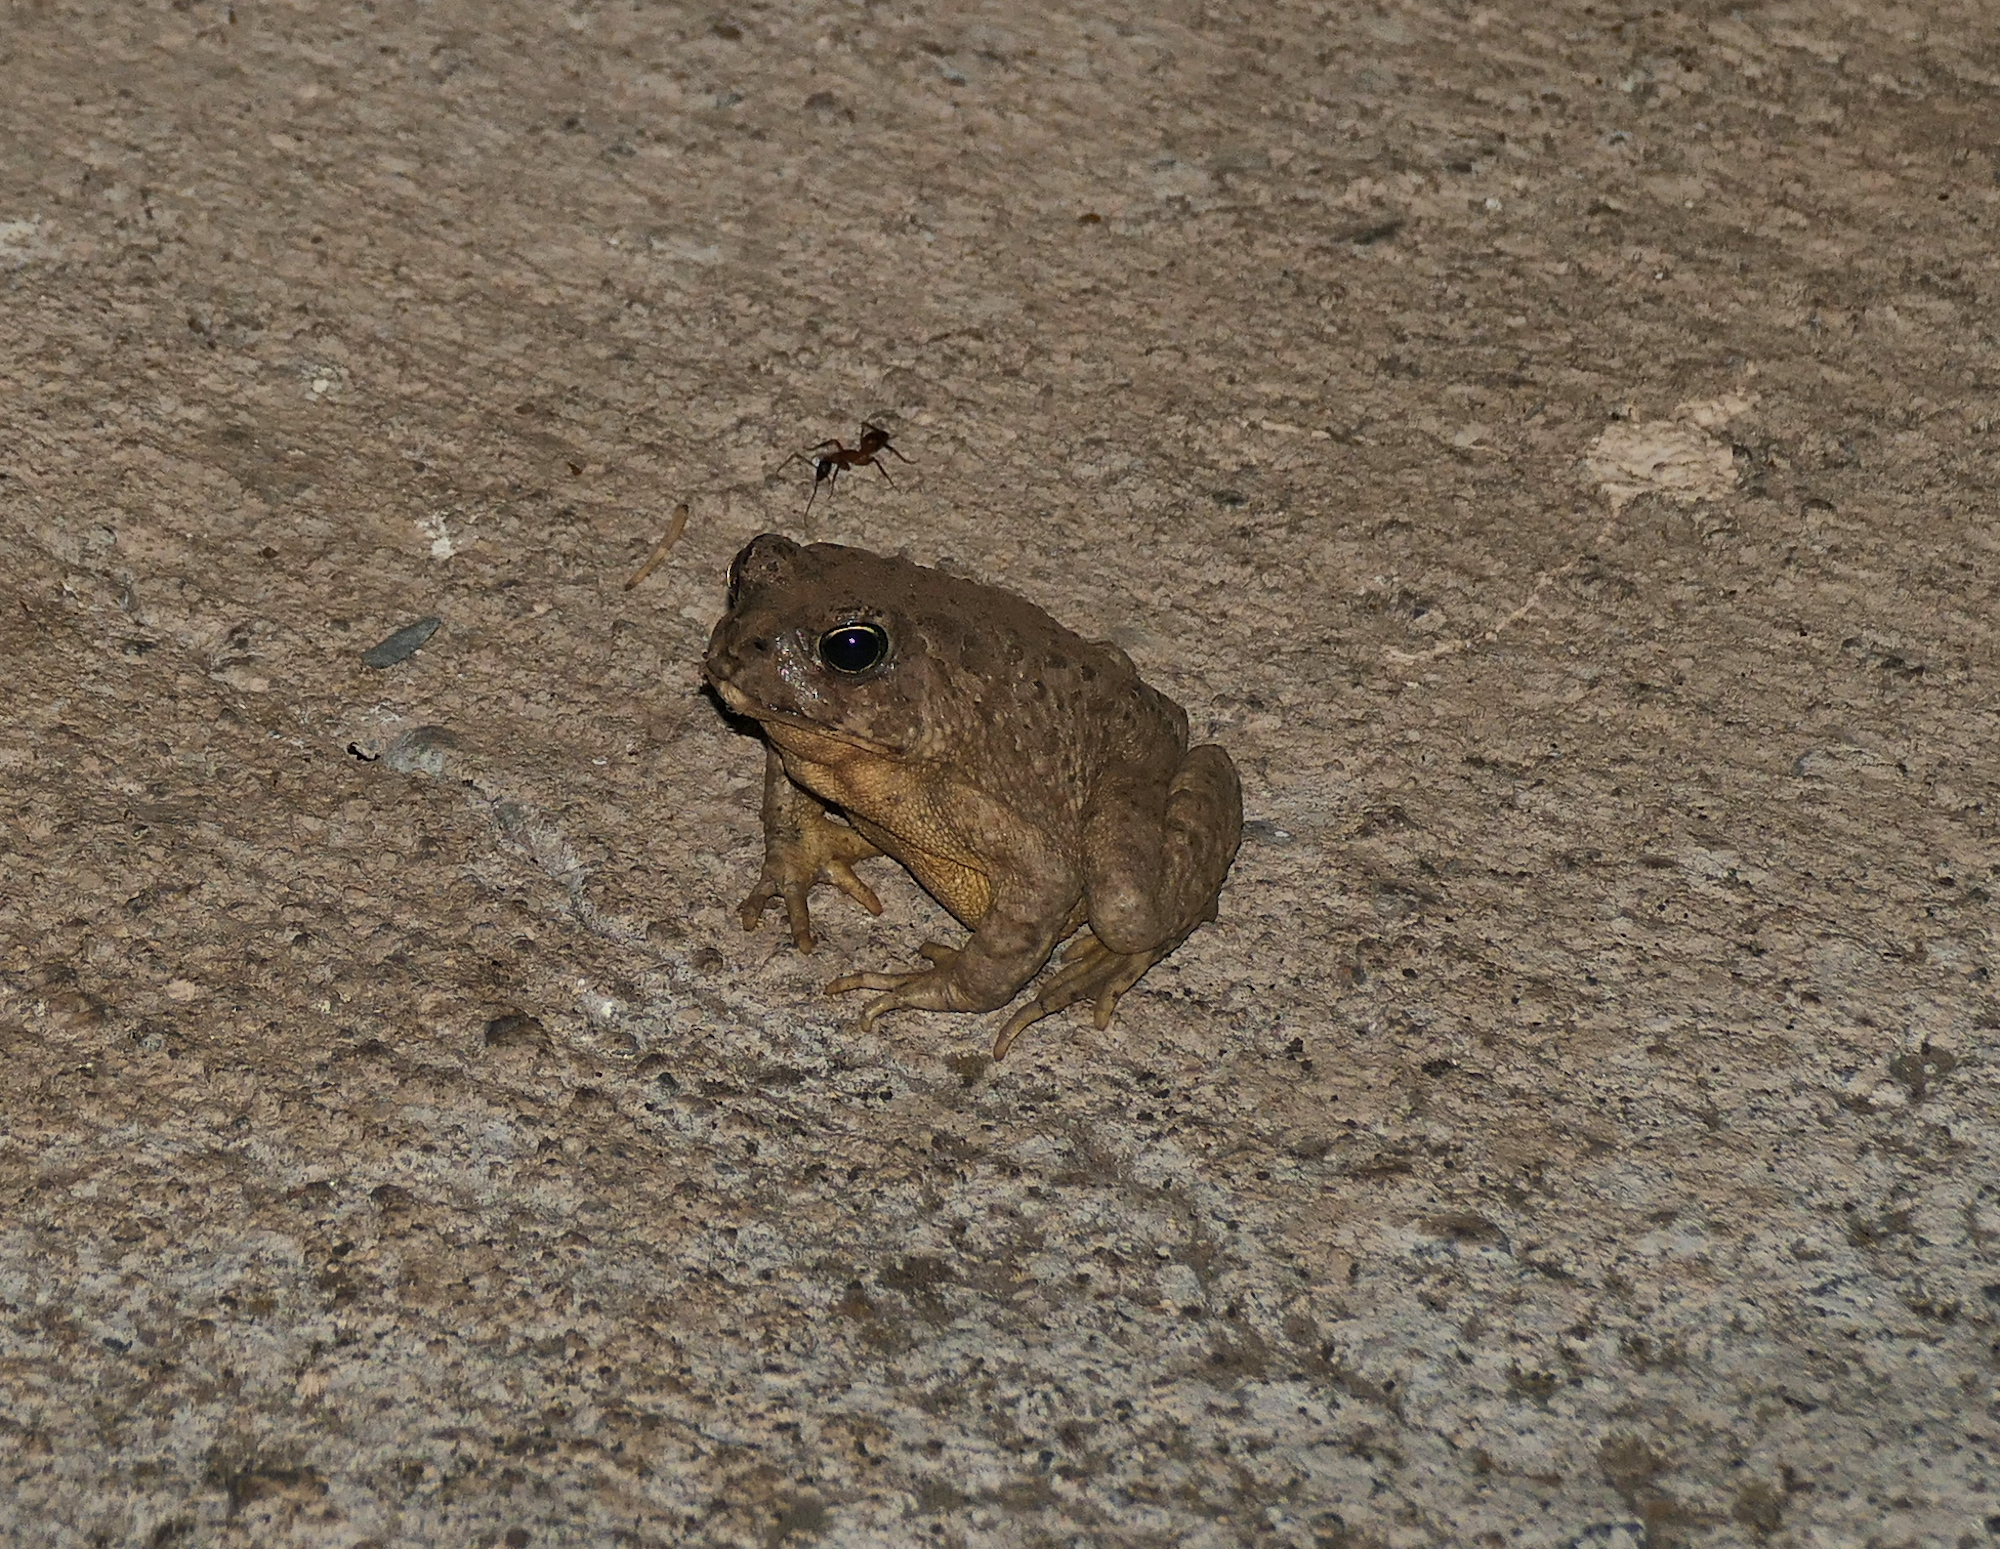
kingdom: Animalia
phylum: Chordata
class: Amphibia
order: Anura
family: Bufonidae
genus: Anaxyrus
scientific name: Anaxyrus microscaphus
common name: Arizona toad
